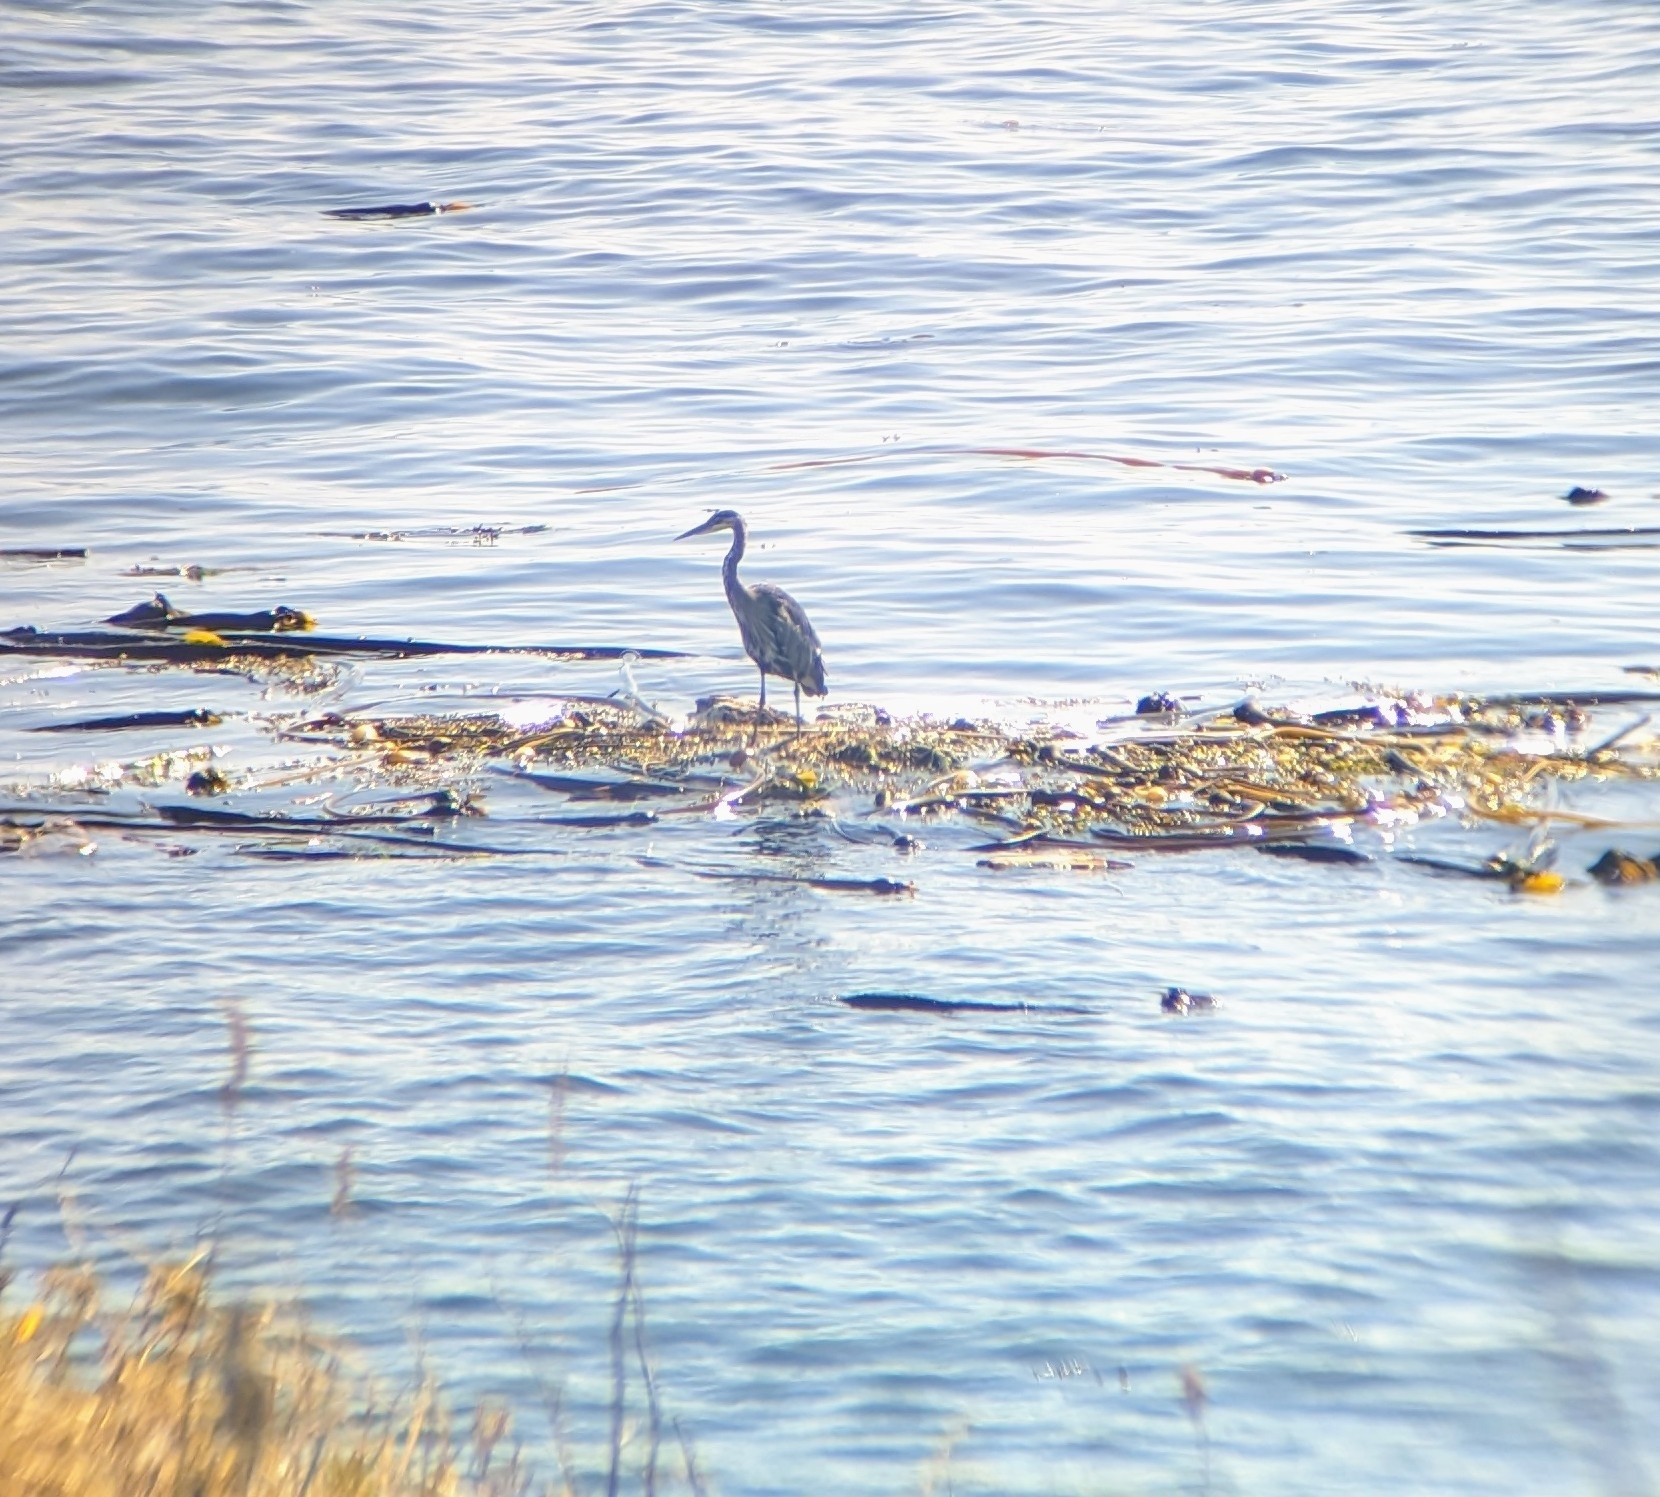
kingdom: Animalia
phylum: Chordata
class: Aves
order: Pelecaniformes
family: Ardeidae
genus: Ardea
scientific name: Ardea herodias
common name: Great blue heron
